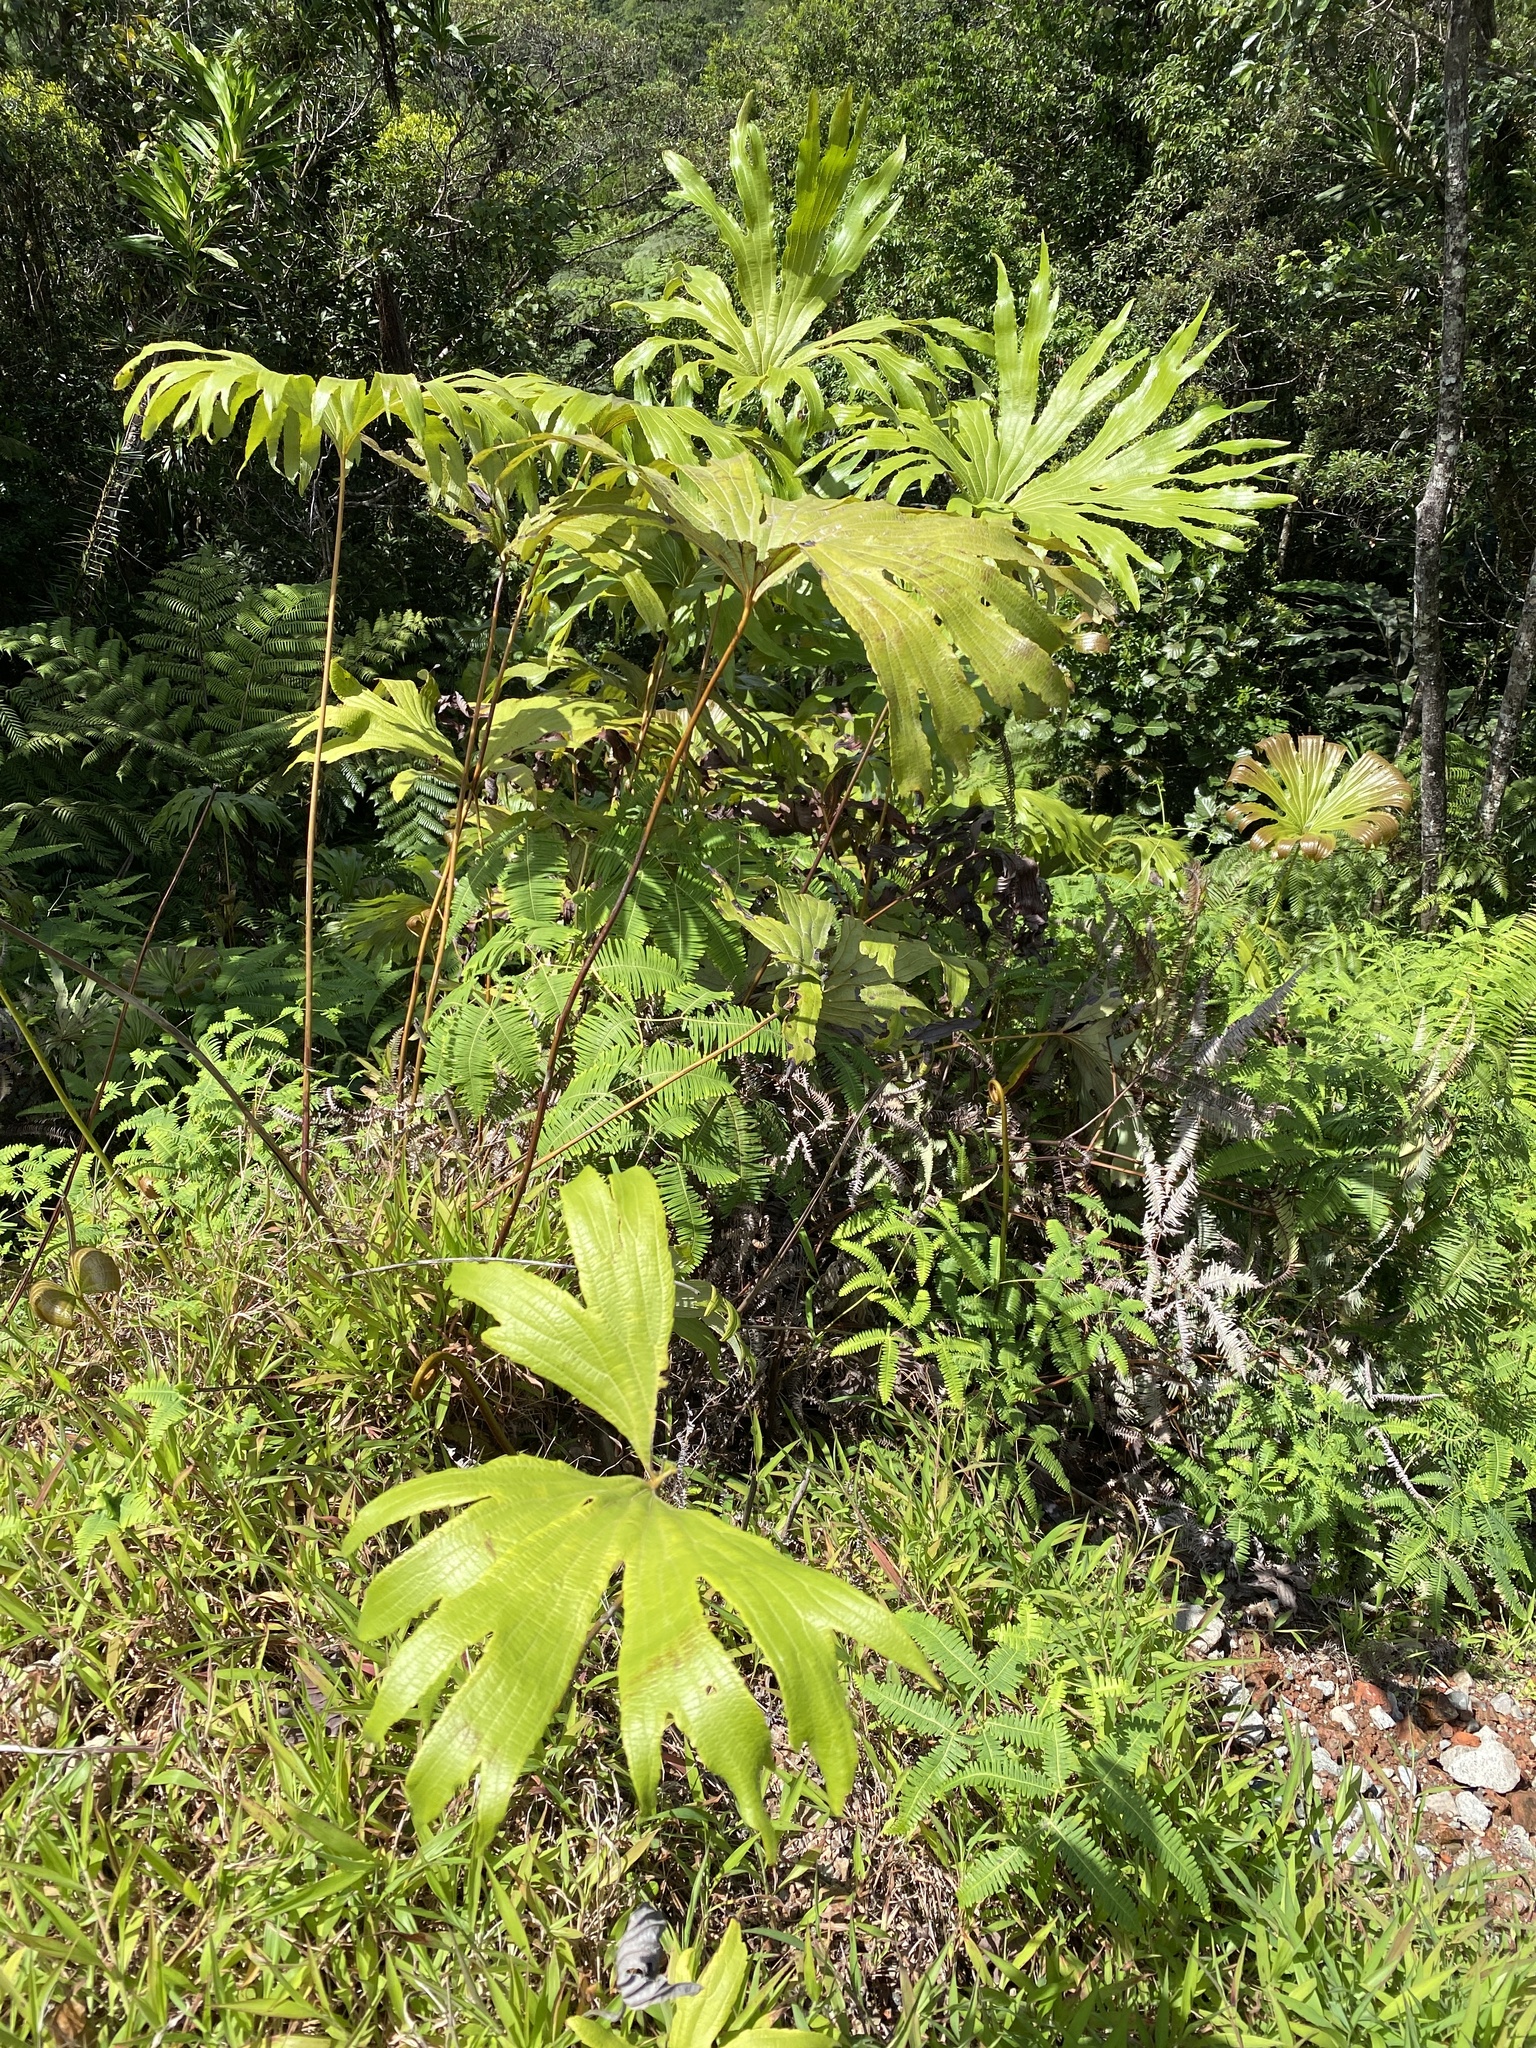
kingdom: Plantae
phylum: Tracheophyta
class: Polypodiopsida
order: Gleicheniales
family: Dipteridaceae
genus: Dipteris
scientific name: Dipteris conjugata
